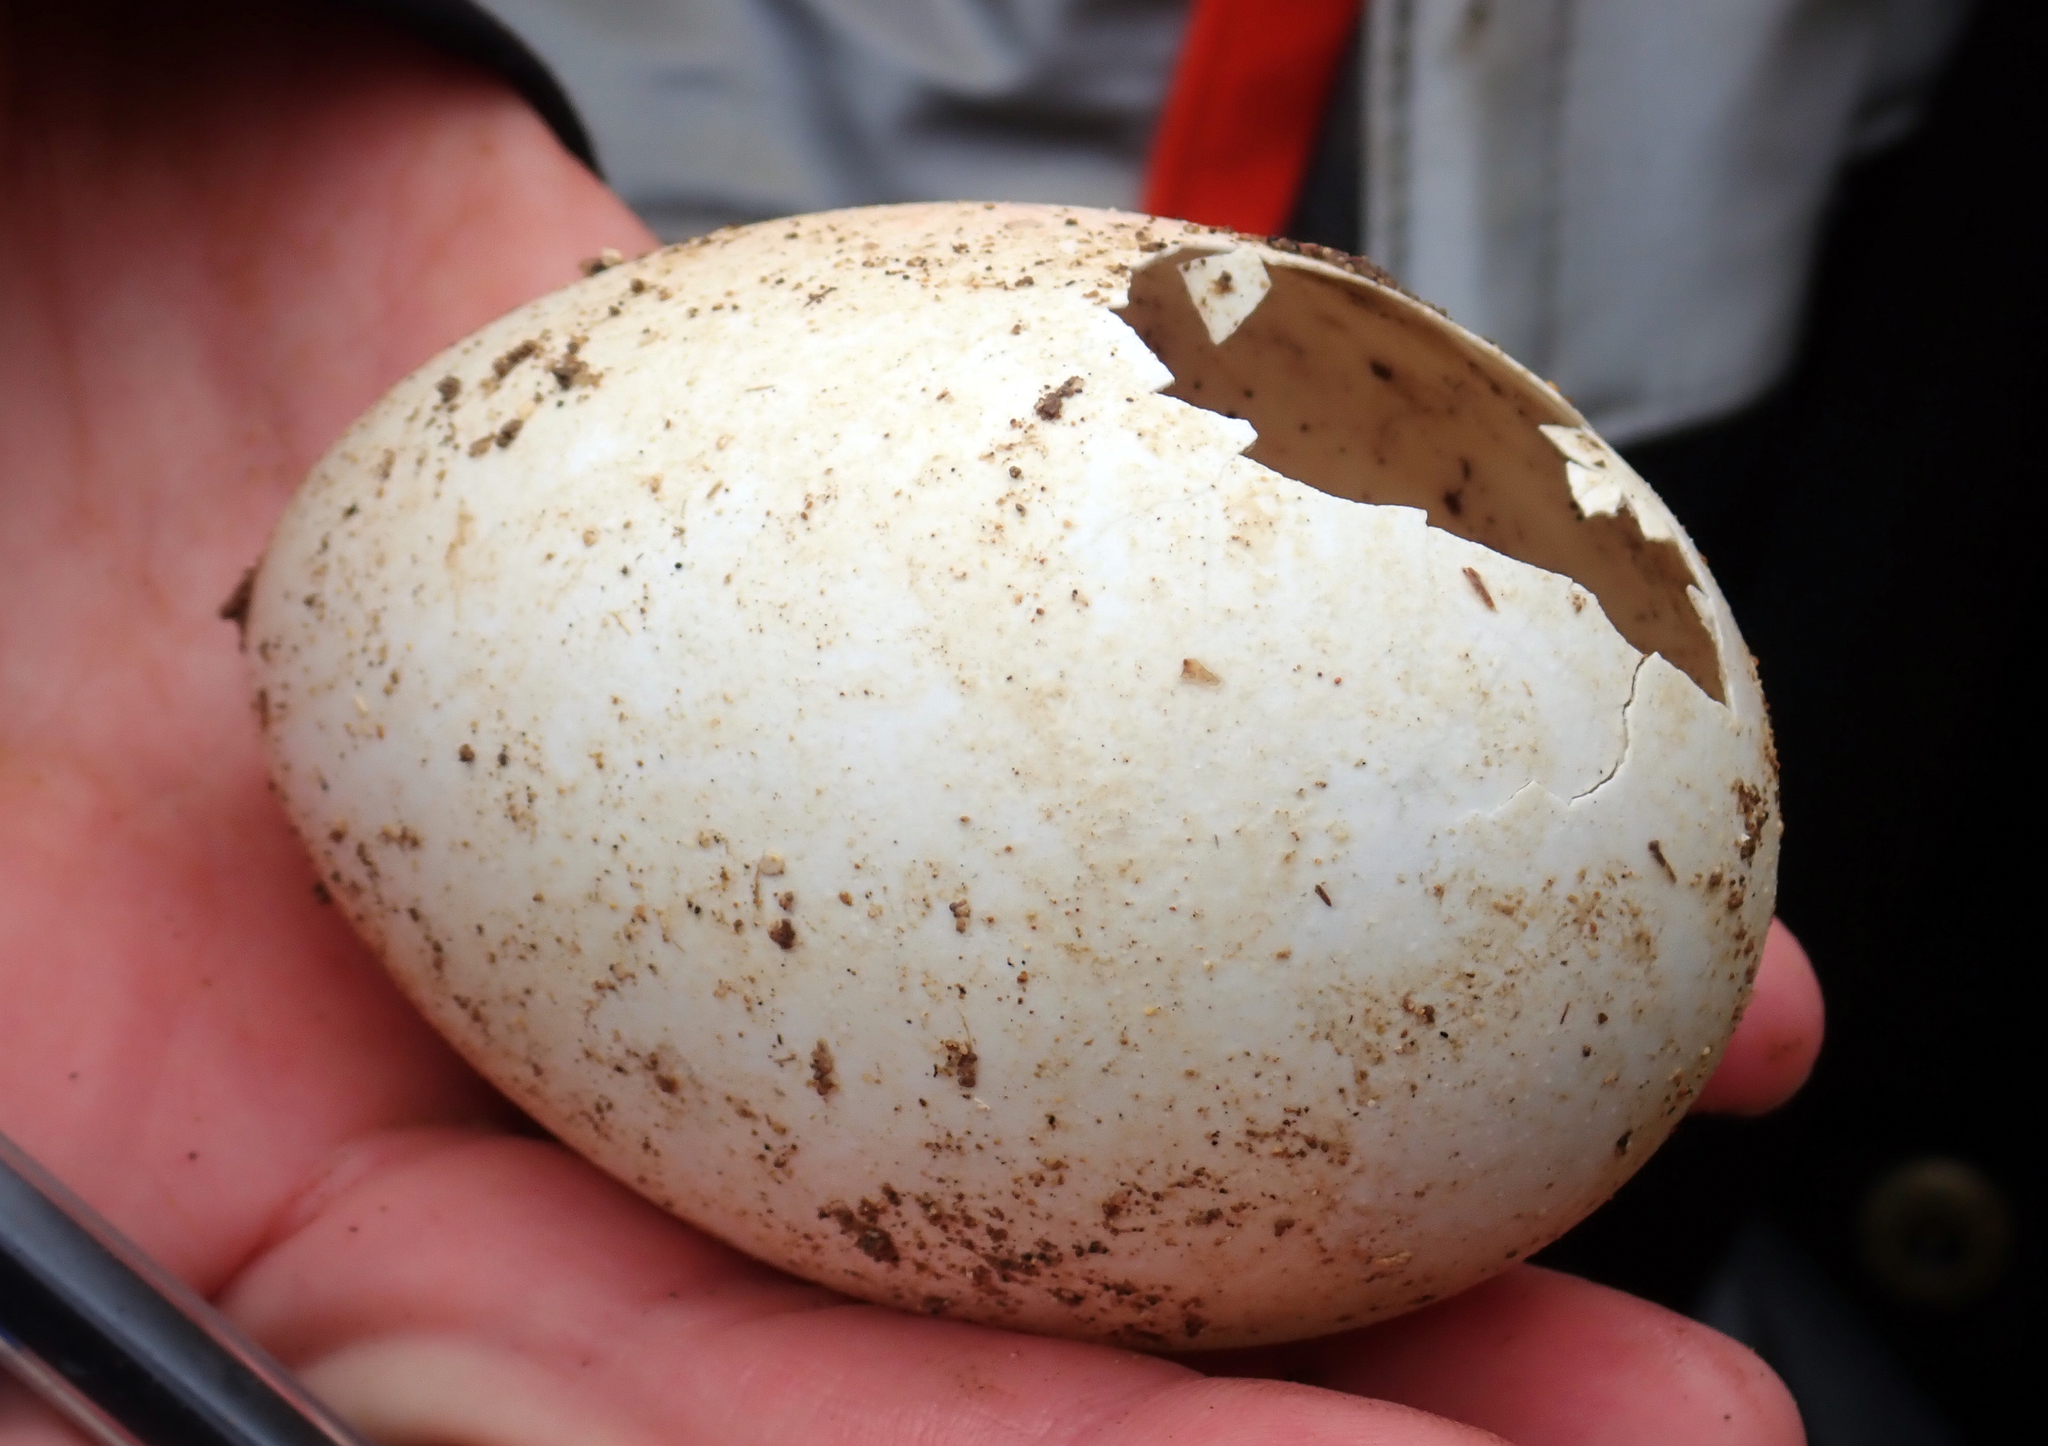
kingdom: Animalia
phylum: Chordata
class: Aves
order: Procellariiformes
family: Procellariidae
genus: Puffinus
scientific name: Puffinus griseus
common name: Sooty shearwater
